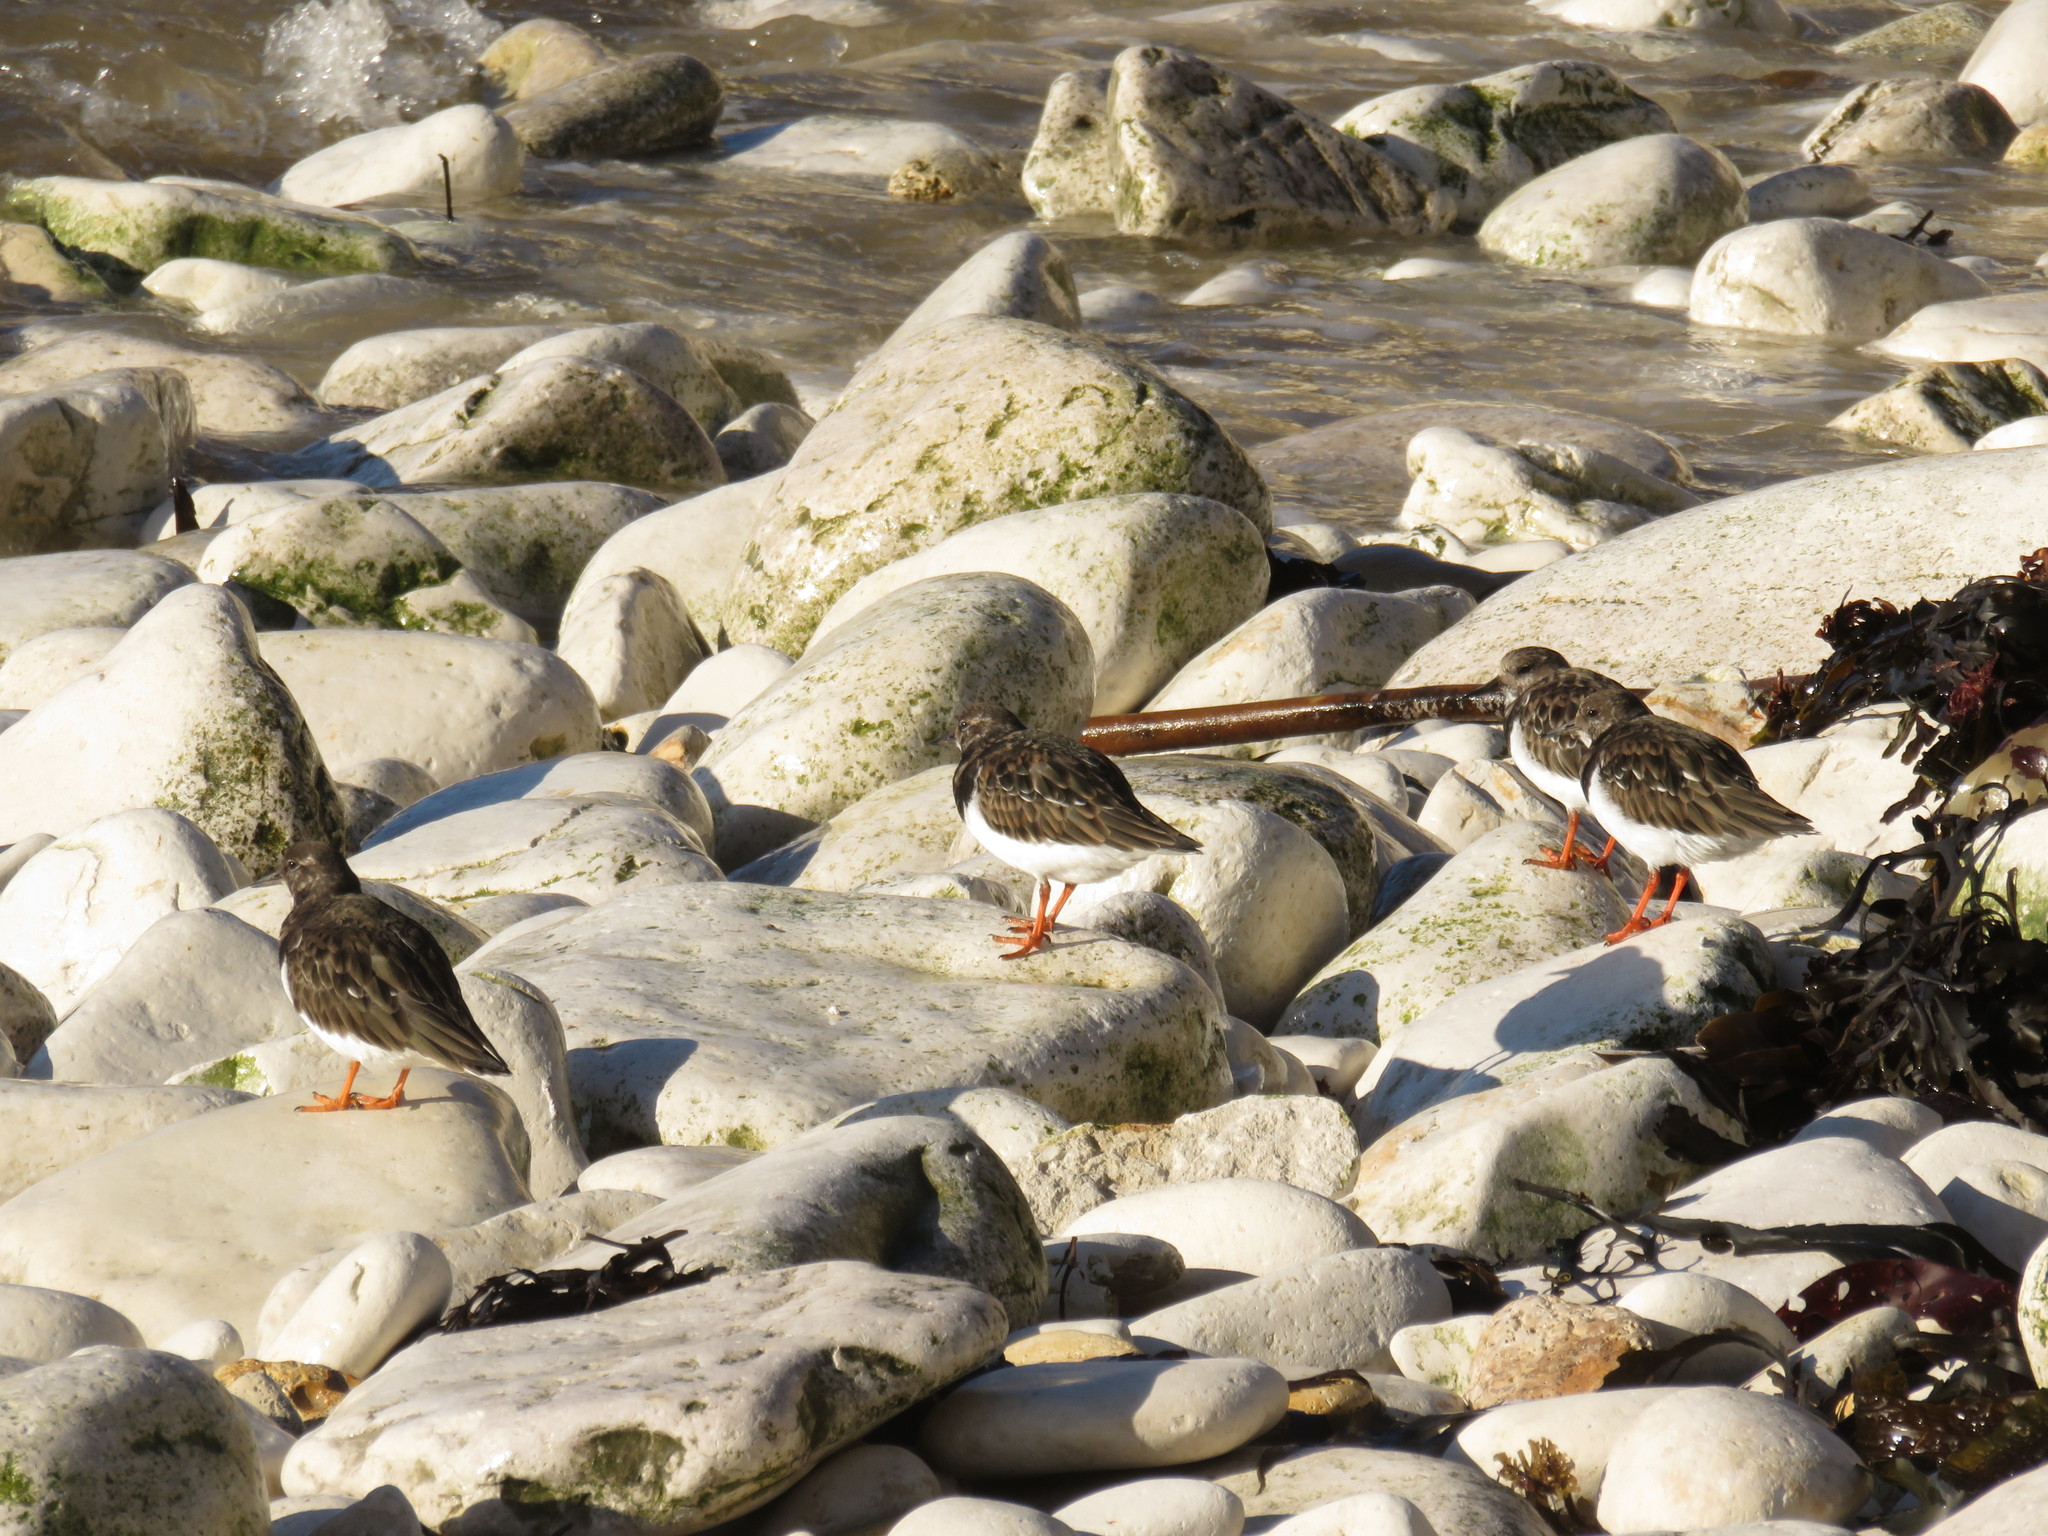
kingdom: Animalia
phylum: Chordata
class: Aves
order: Charadriiformes
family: Scolopacidae
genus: Arenaria
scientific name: Arenaria interpres
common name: Ruddy turnstone
